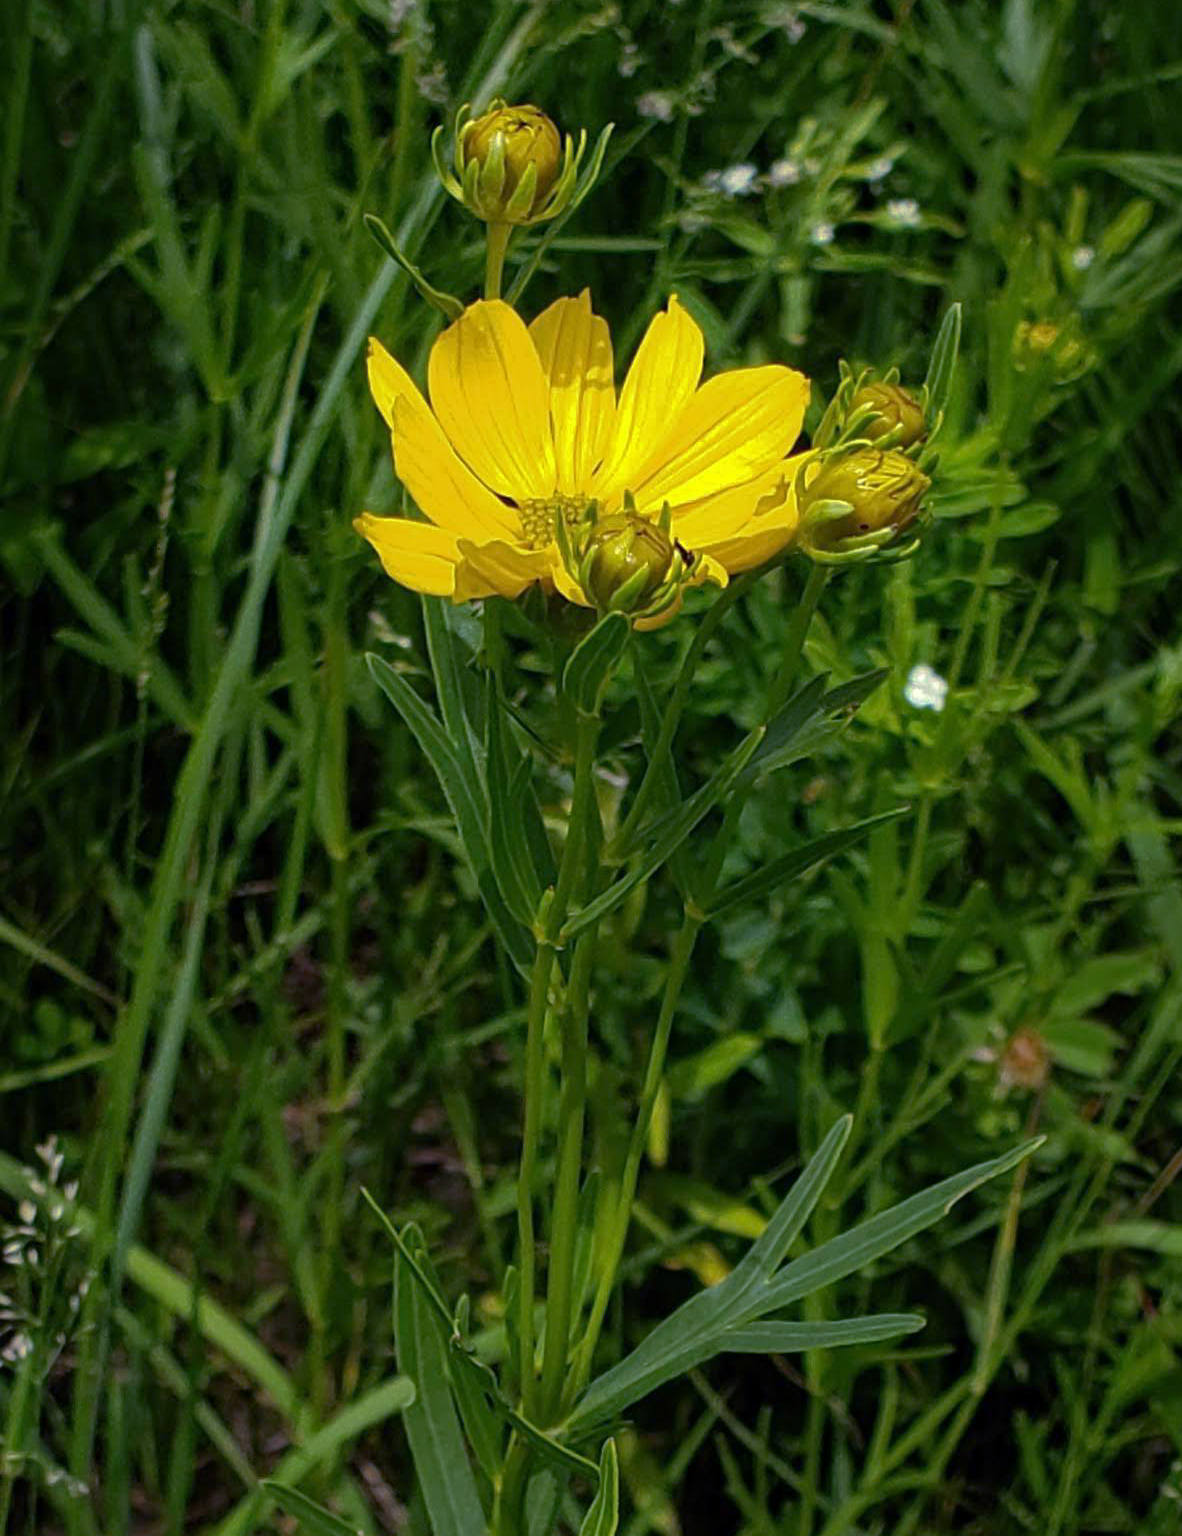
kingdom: Plantae
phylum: Tracheophyta
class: Magnoliopsida
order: Asterales
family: Asteraceae
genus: Coreopsis
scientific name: Coreopsis palmata
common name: Prairie coreopsis
